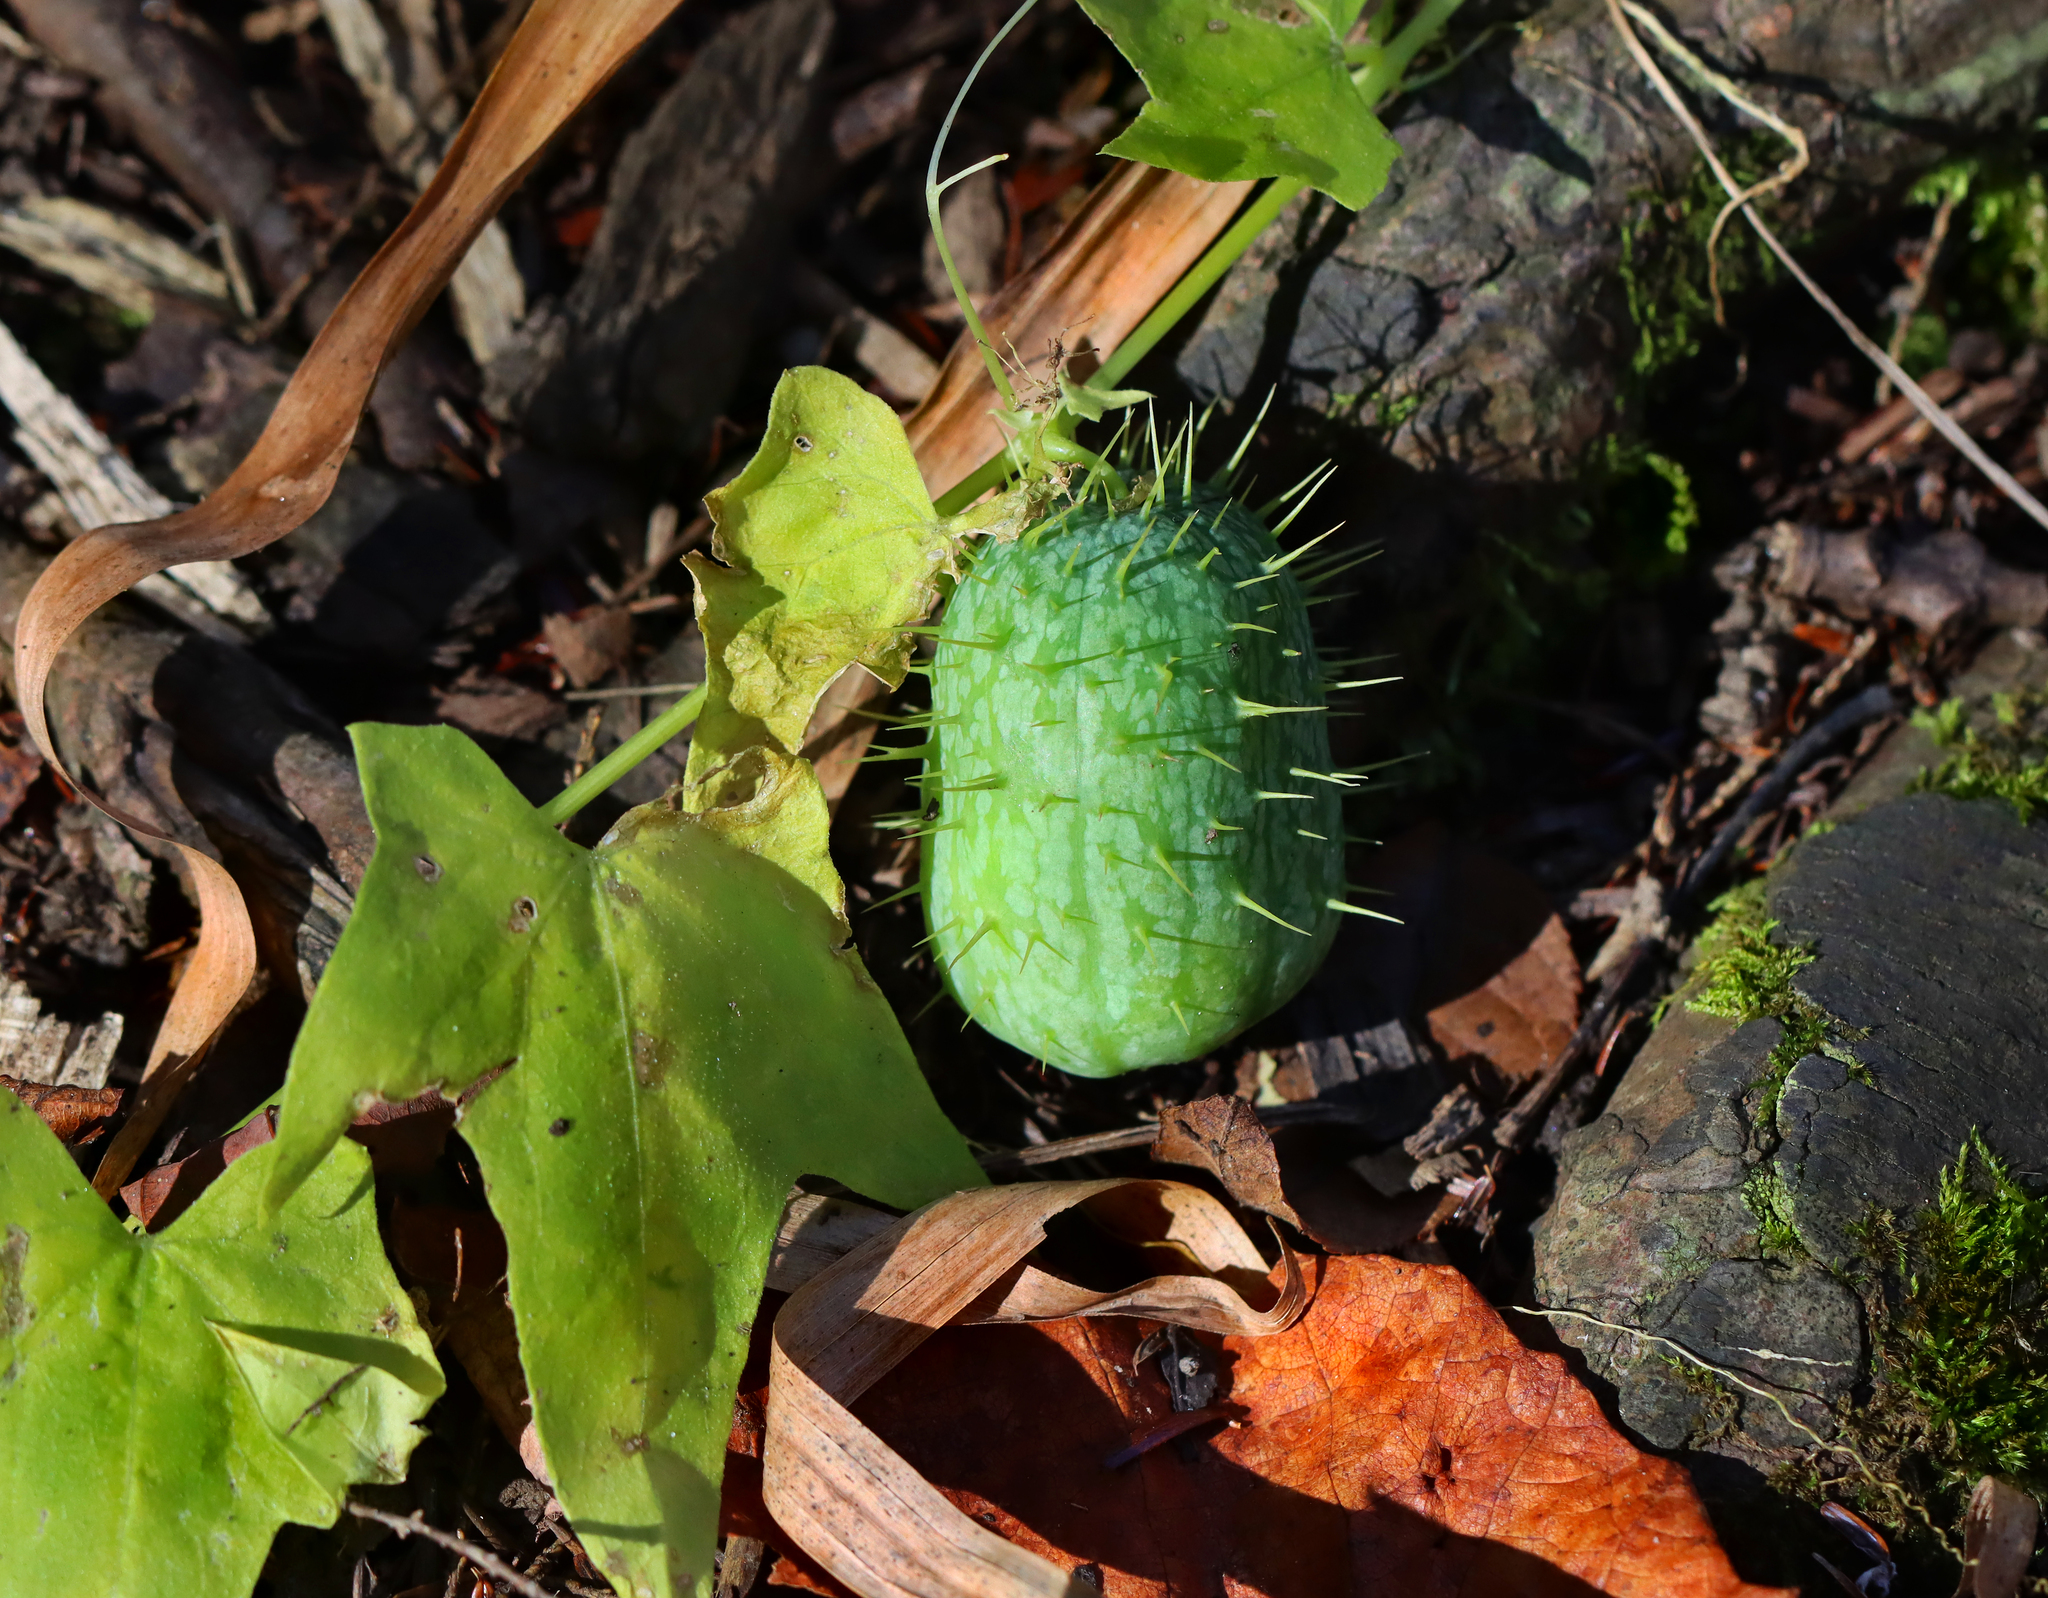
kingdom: Plantae
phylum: Tracheophyta
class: Magnoliopsida
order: Cucurbitales
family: Cucurbitaceae
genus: Echinocystis
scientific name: Echinocystis lobata
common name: Wild cucumber
